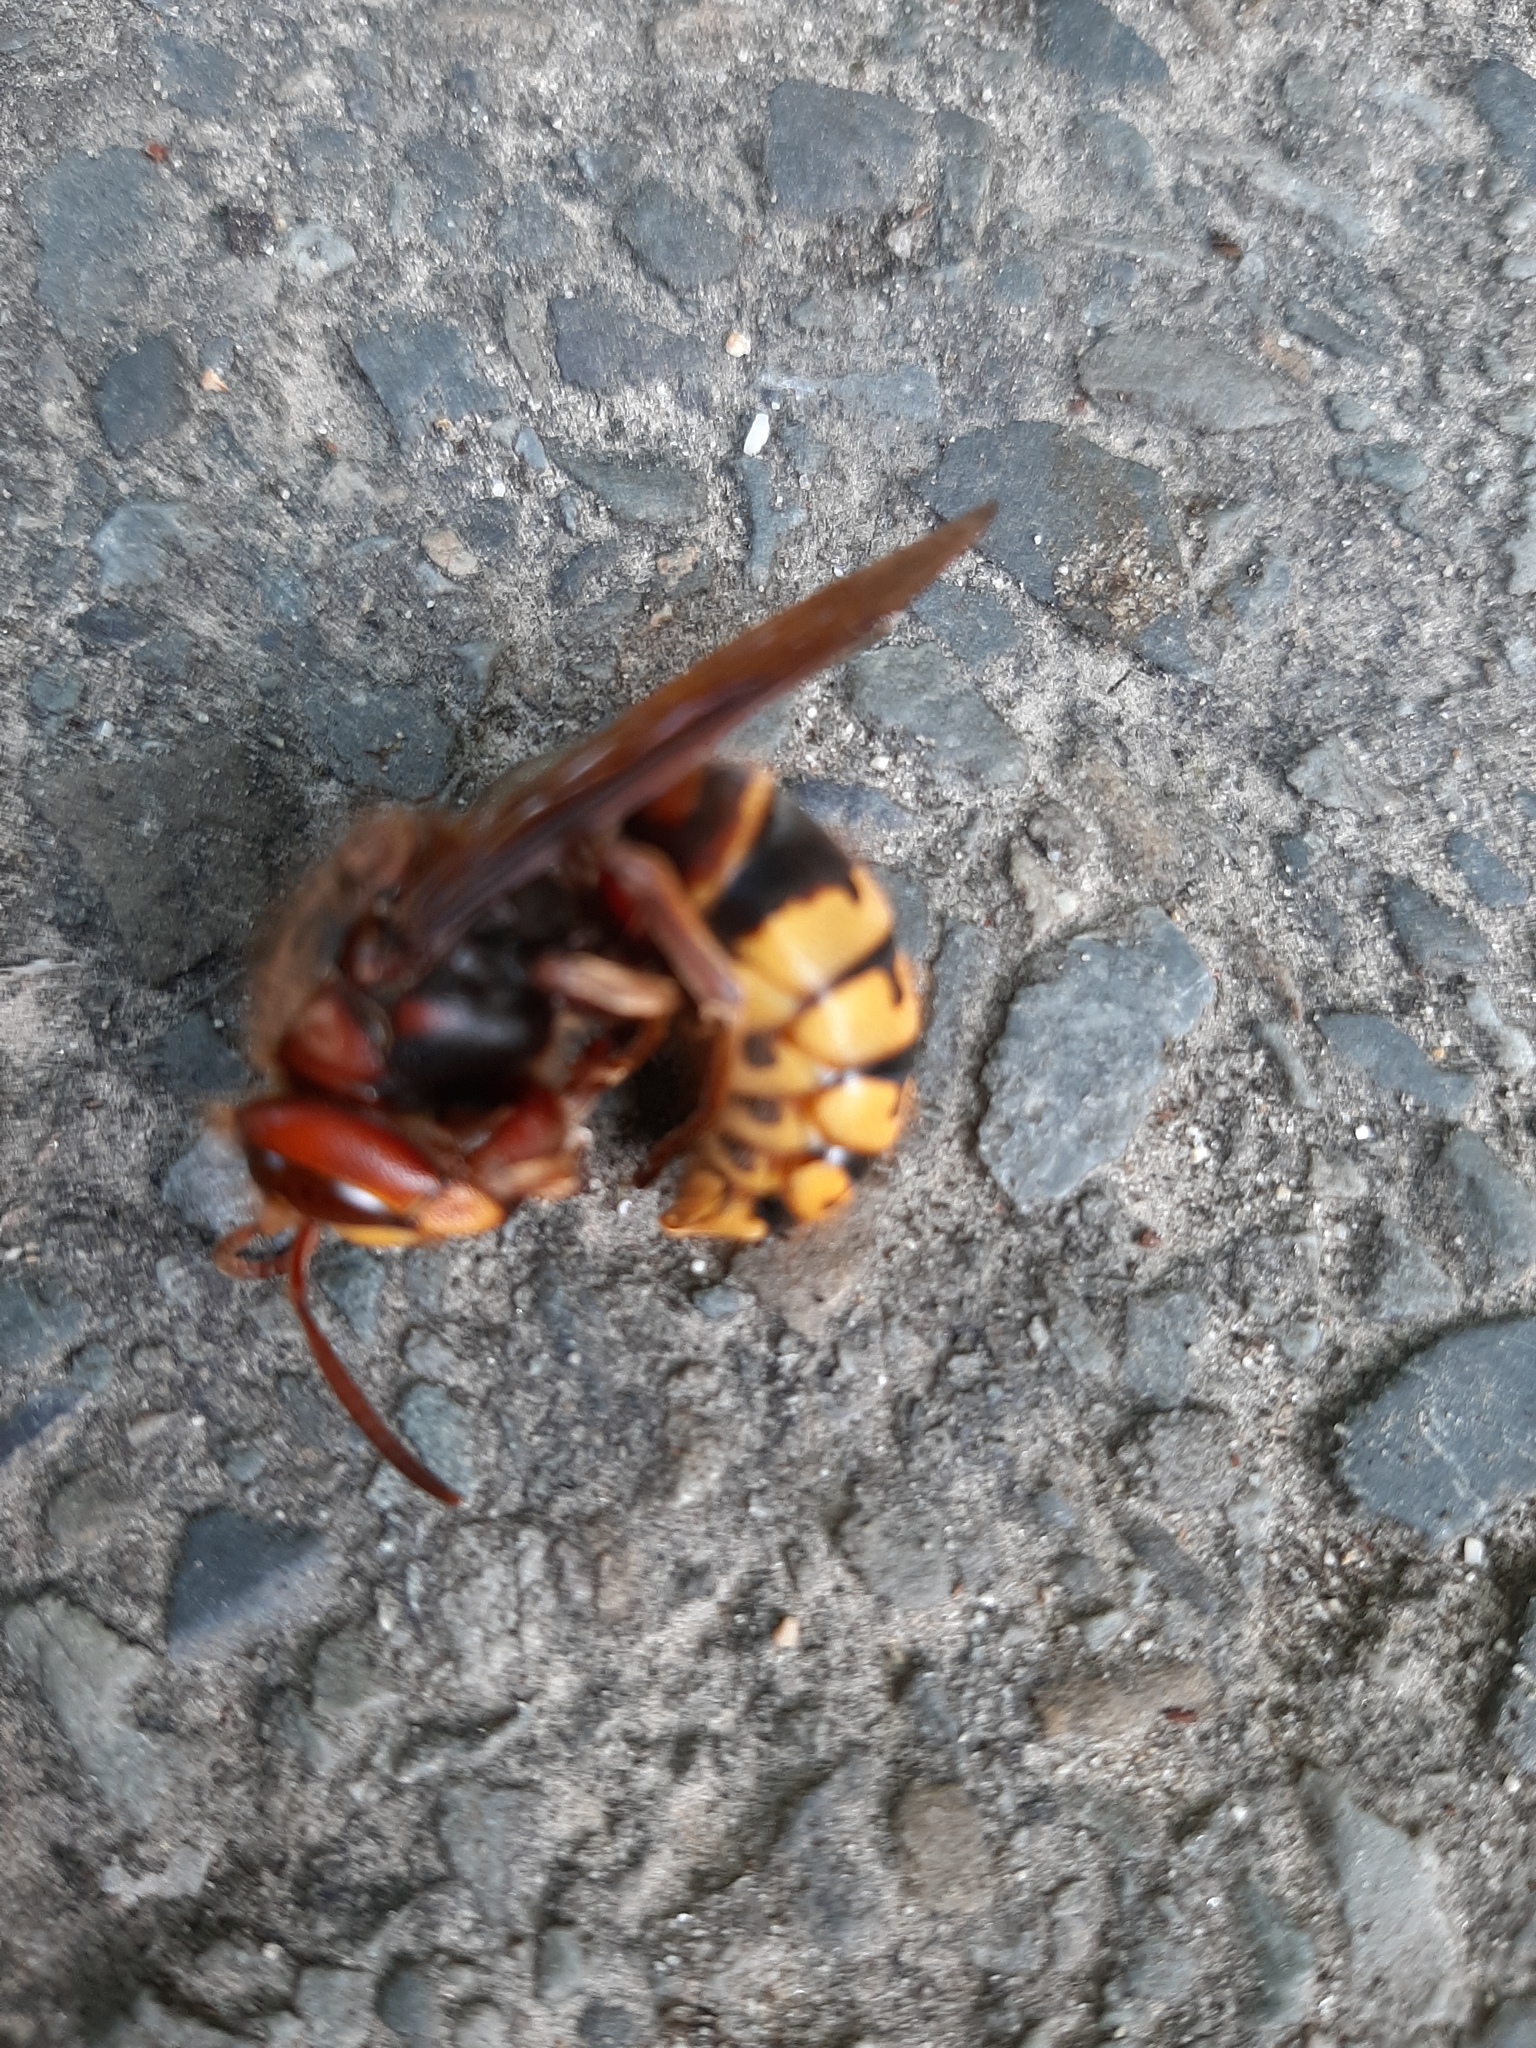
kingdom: Animalia
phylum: Arthropoda
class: Insecta
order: Hymenoptera
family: Vespidae
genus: Vespa
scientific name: Vespa crabro
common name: Hornet
